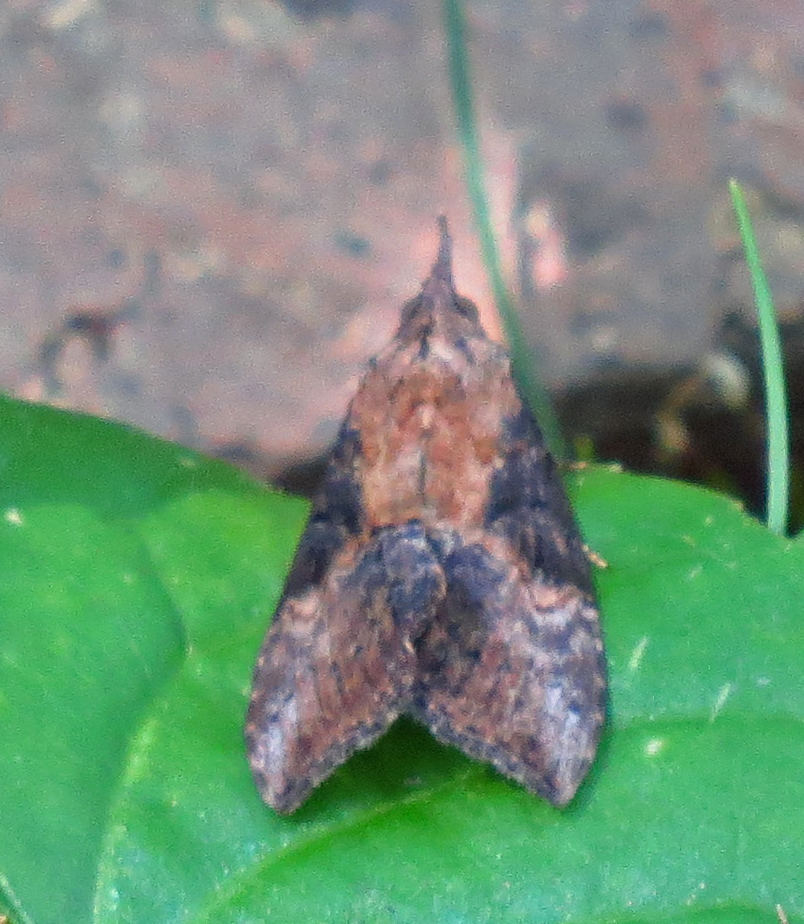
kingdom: Animalia
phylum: Arthropoda
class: Insecta
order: Lepidoptera
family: Erebidae
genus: Hypena
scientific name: Hypena scabra
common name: Green cloverworm
